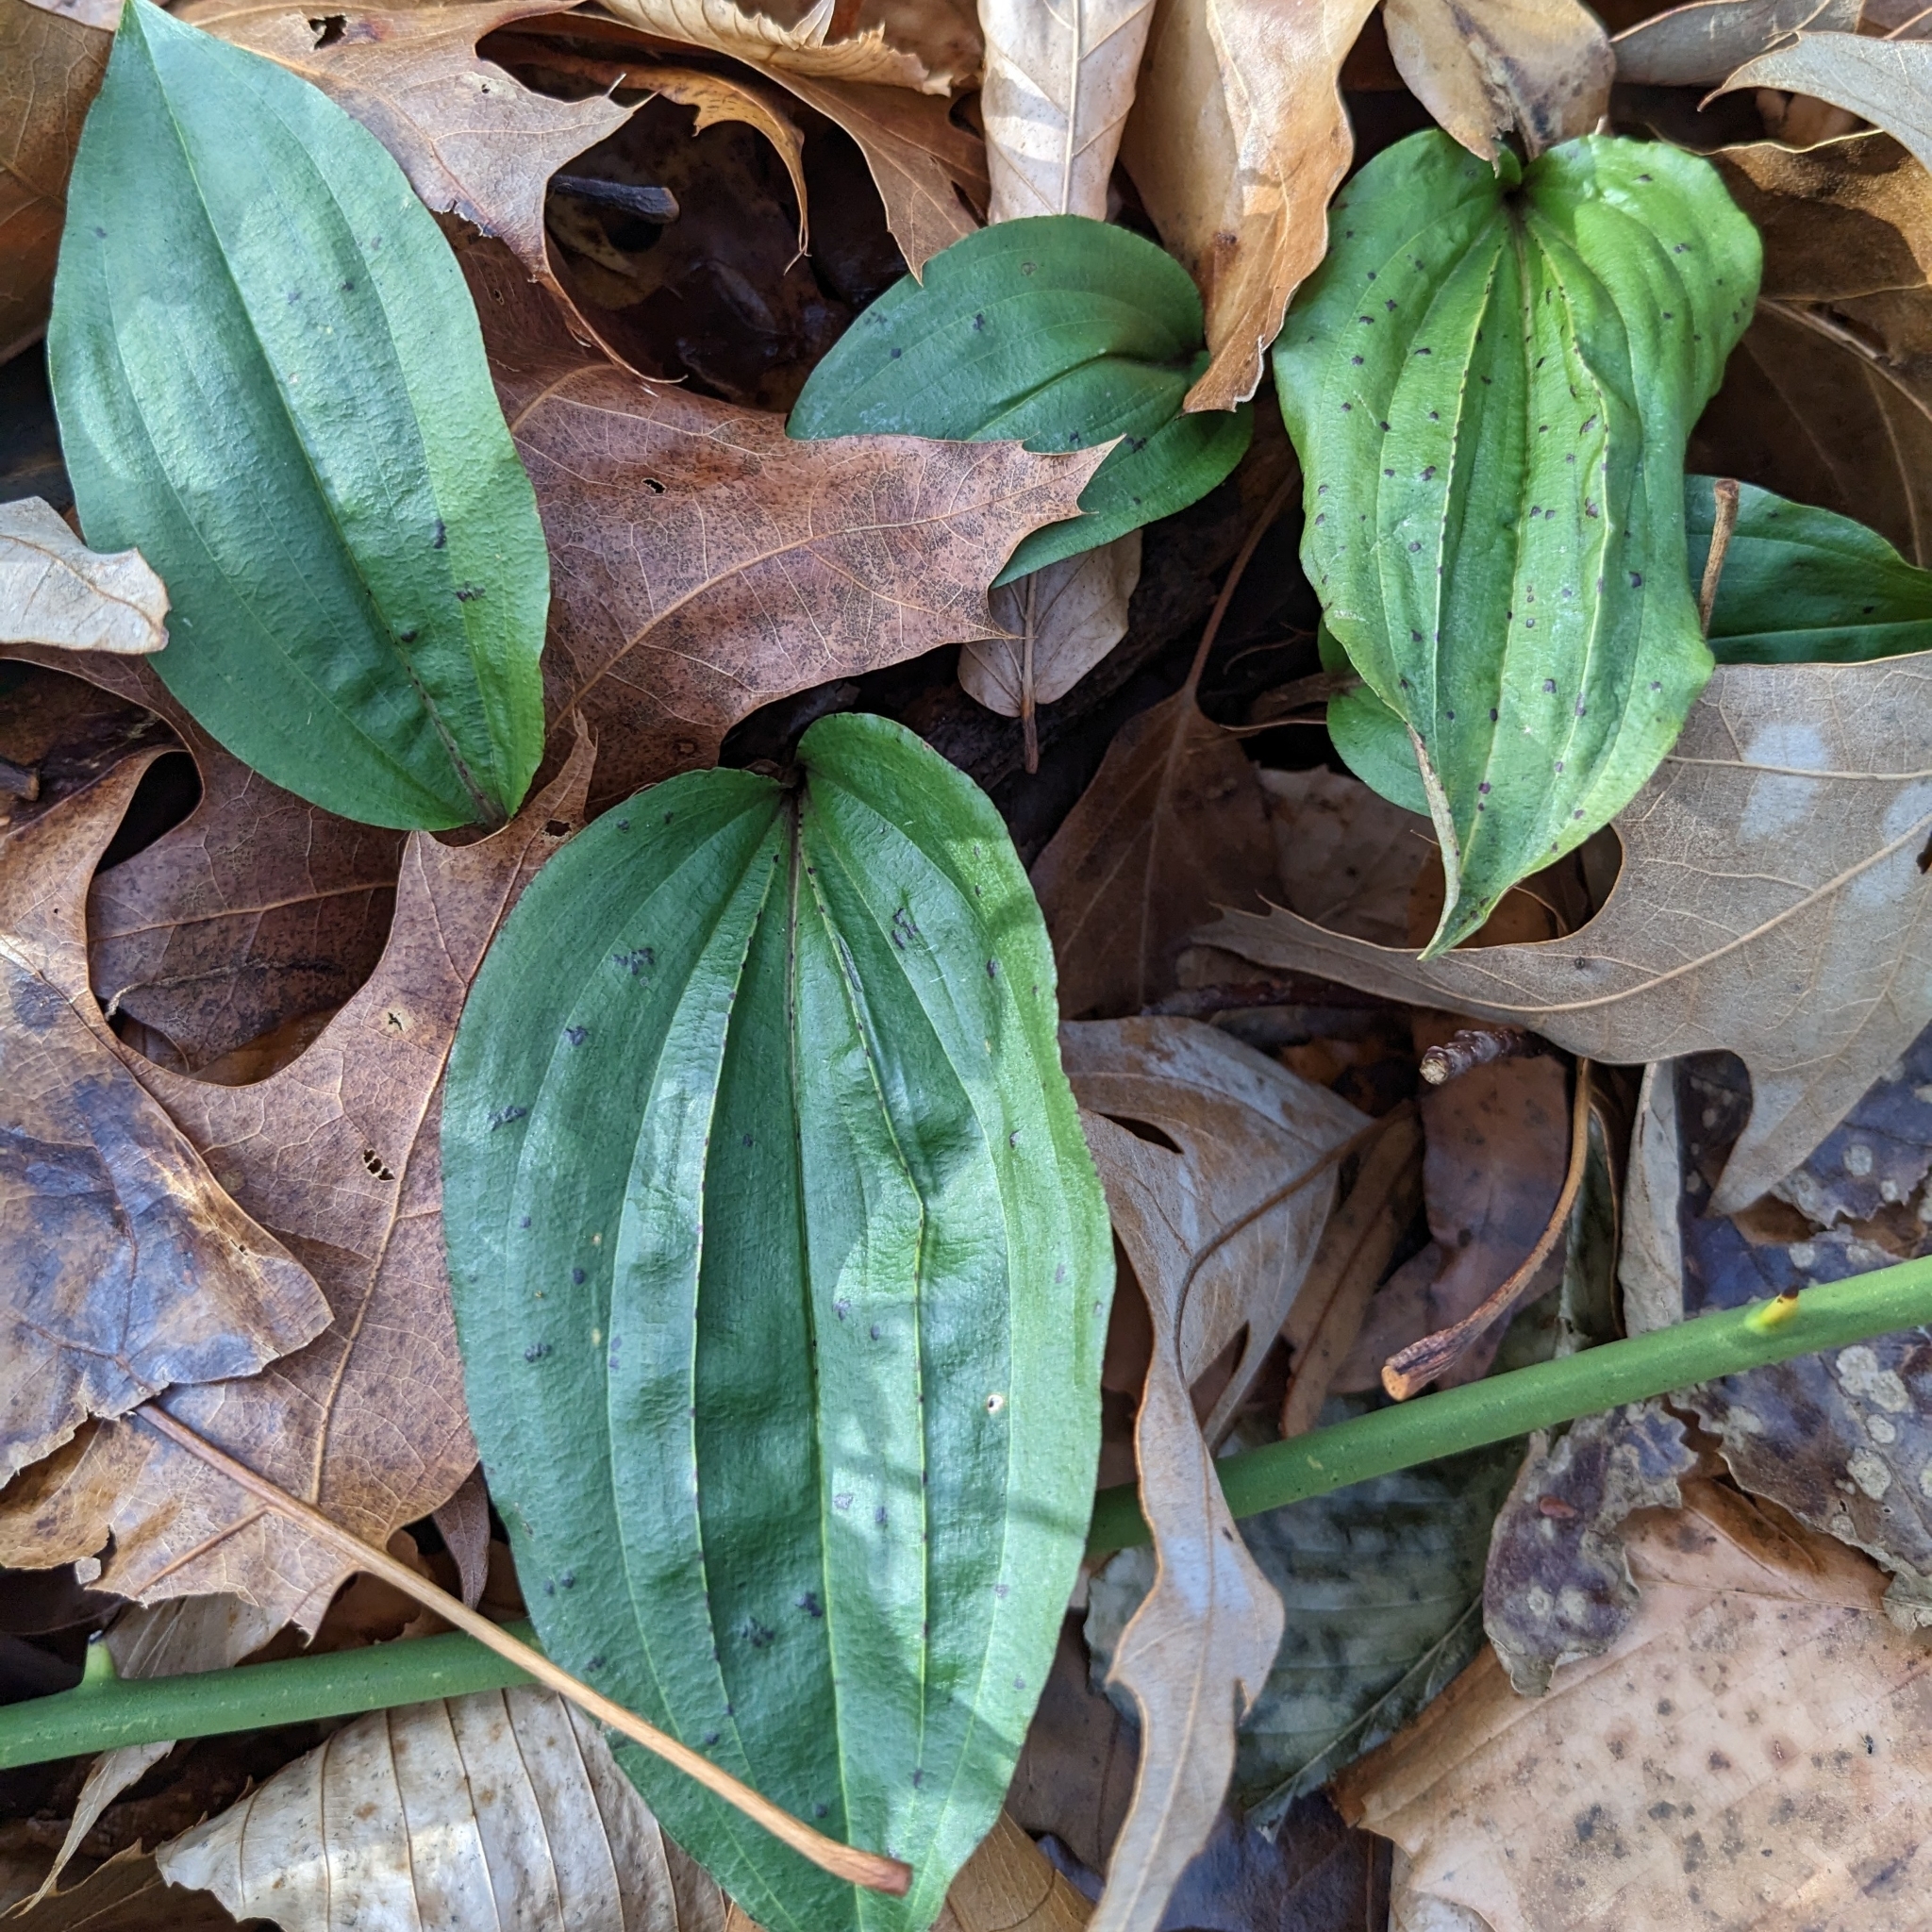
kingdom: Plantae
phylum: Tracheophyta
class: Liliopsida
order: Asparagales
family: Orchidaceae
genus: Tipularia
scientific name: Tipularia discolor
